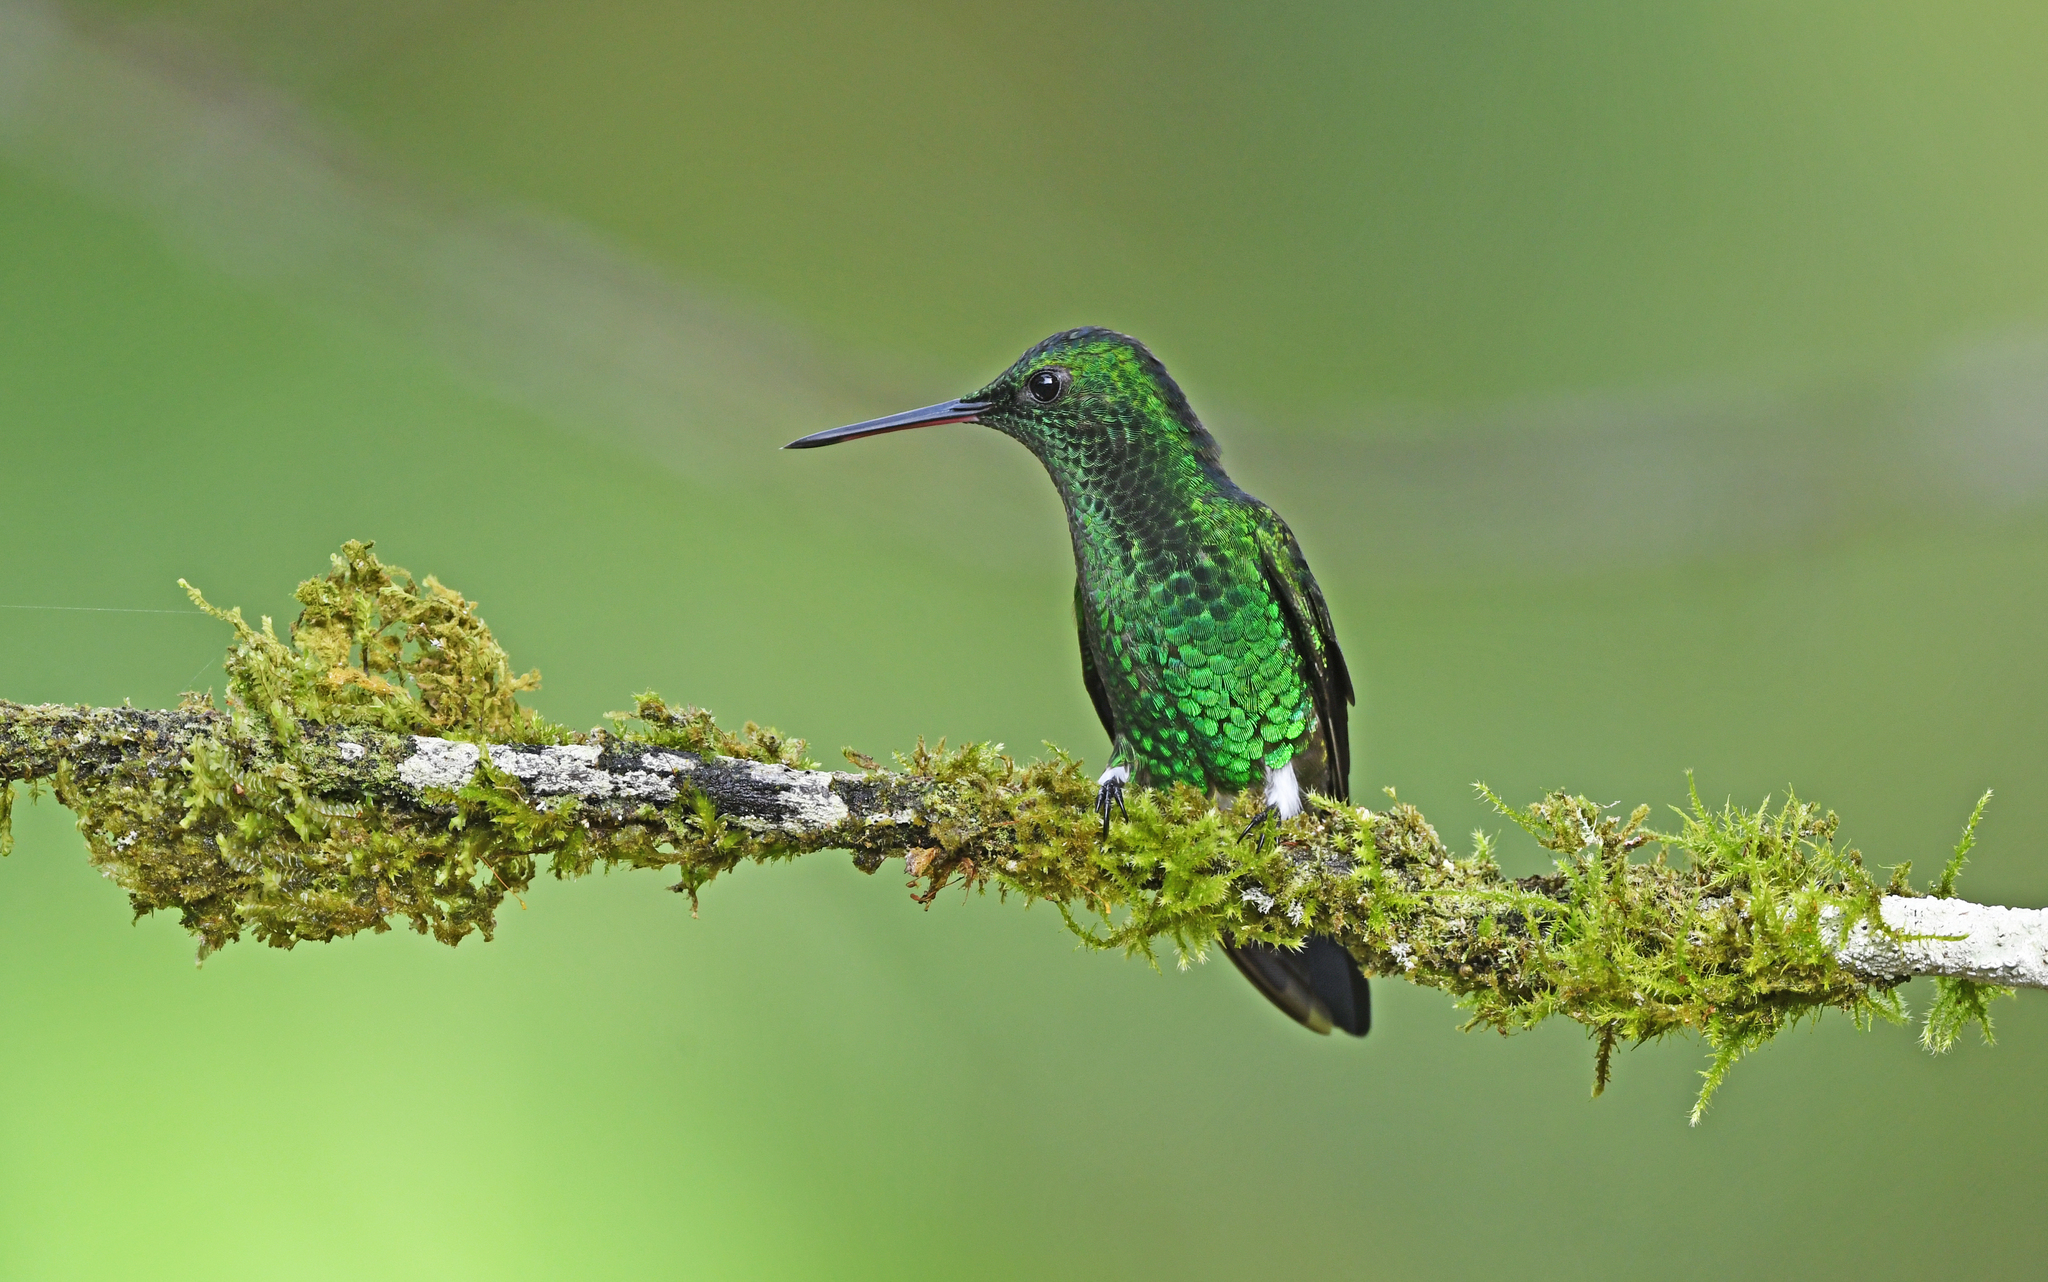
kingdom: Animalia
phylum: Chordata
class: Aves
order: Apodiformes
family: Trochilidae
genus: Saucerottia
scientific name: Saucerottia saucerottei
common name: Steely-vented hummingbird
